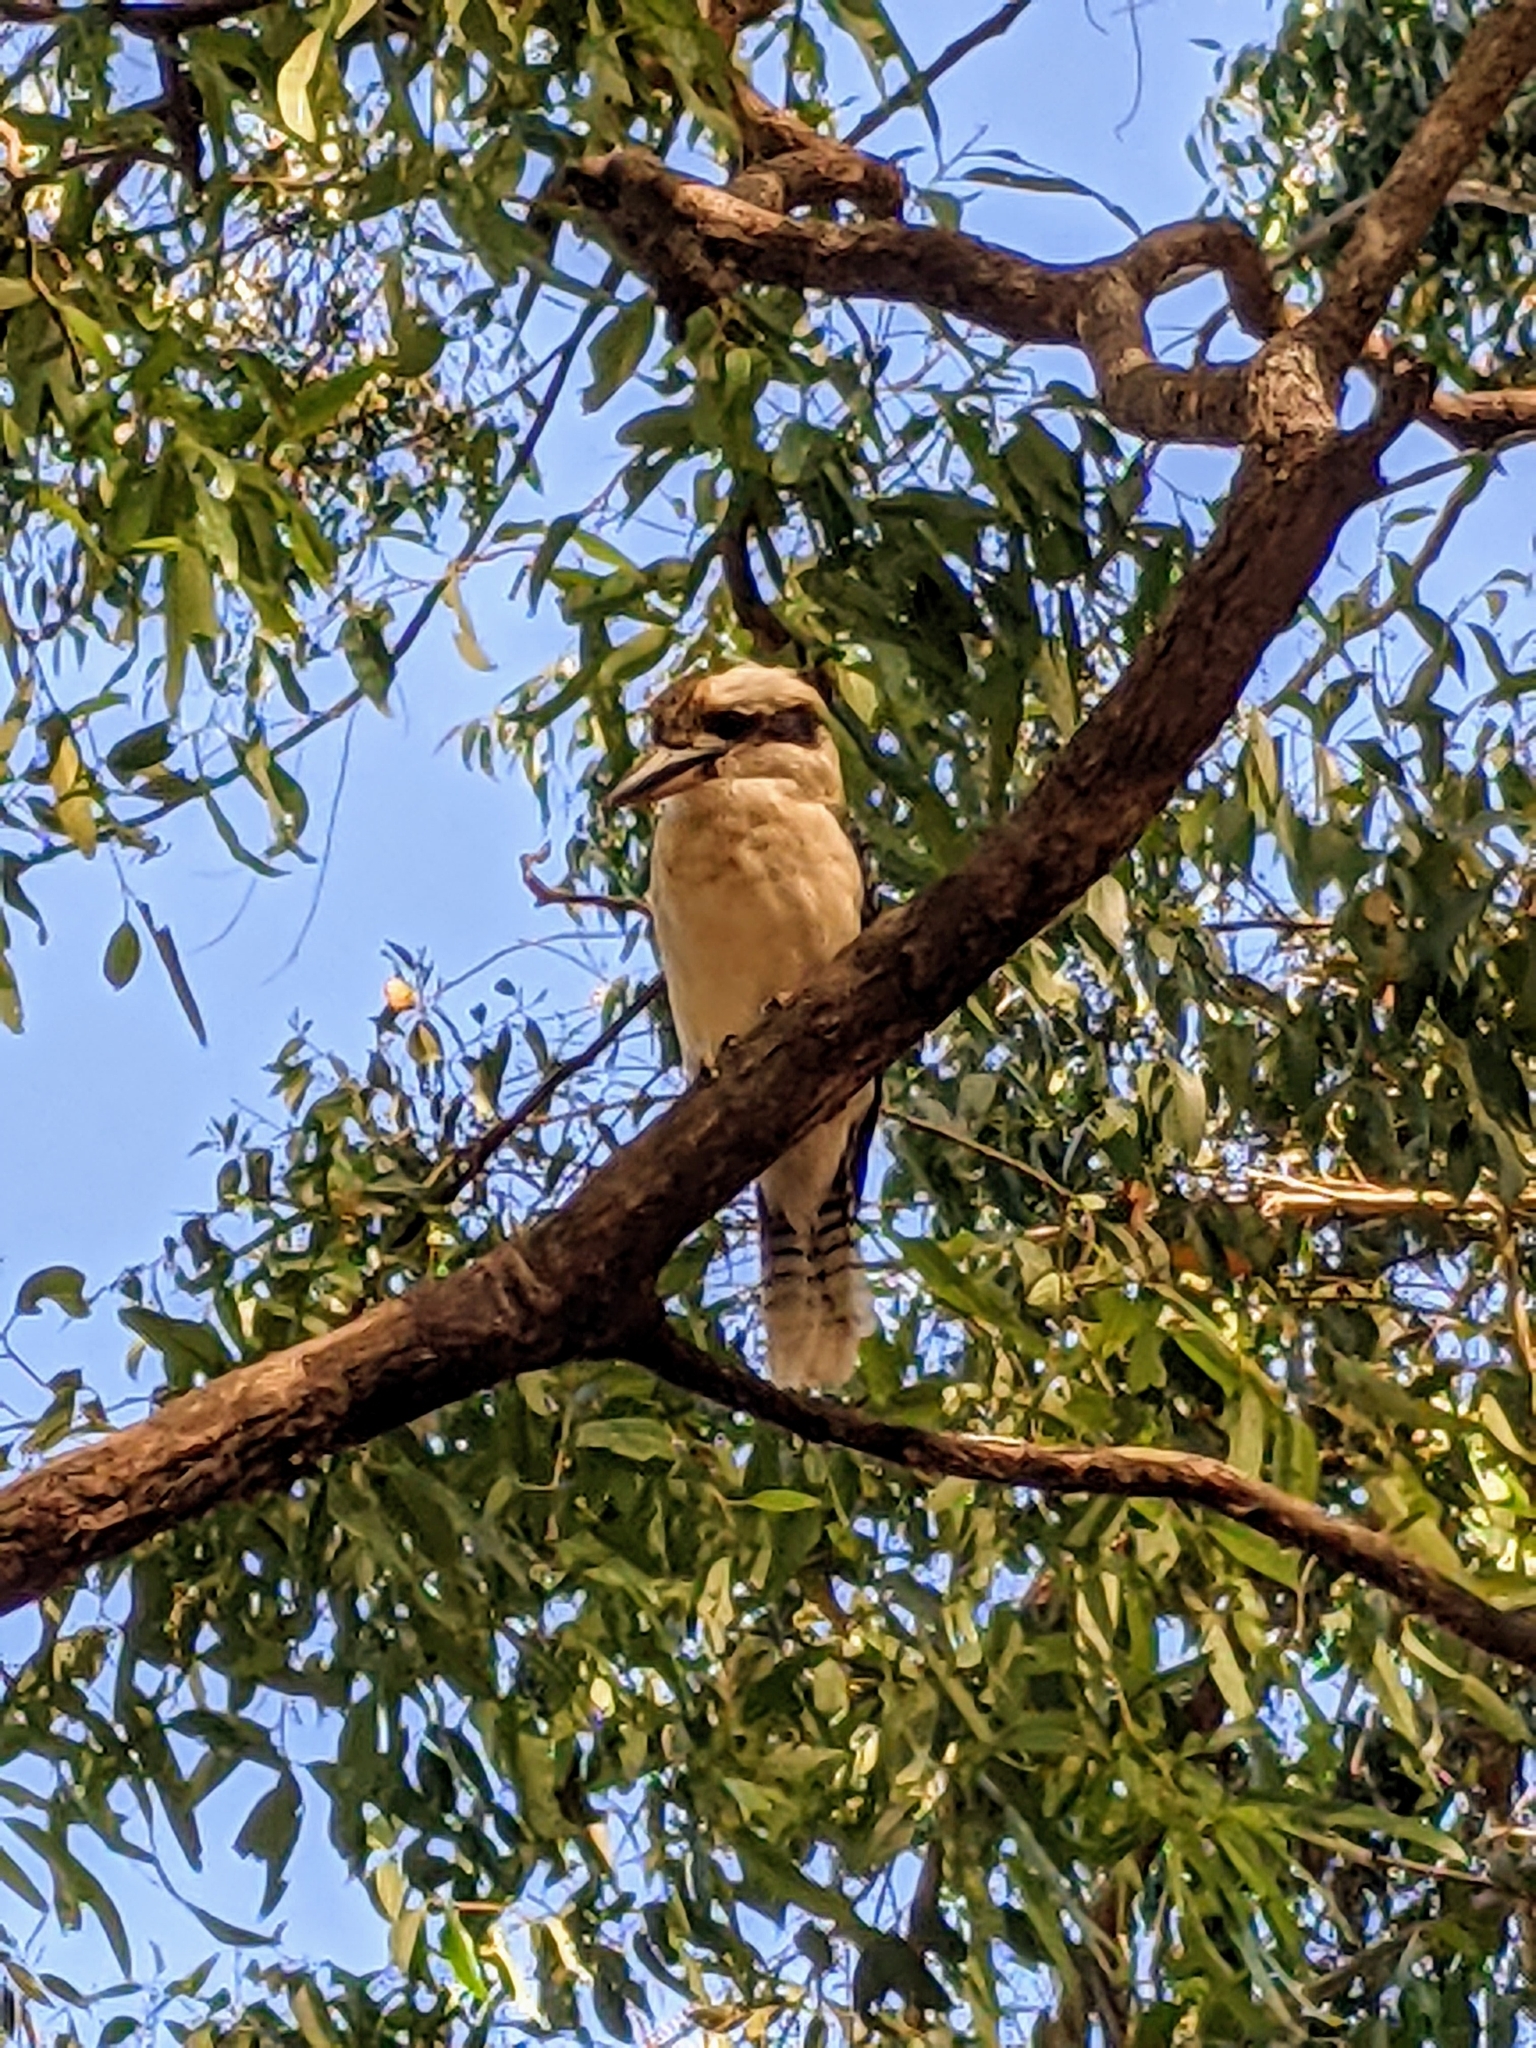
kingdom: Animalia
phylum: Chordata
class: Aves
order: Coraciiformes
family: Alcedinidae
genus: Dacelo
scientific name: Dacelo novaeguineae
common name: Laughing kookaburra
